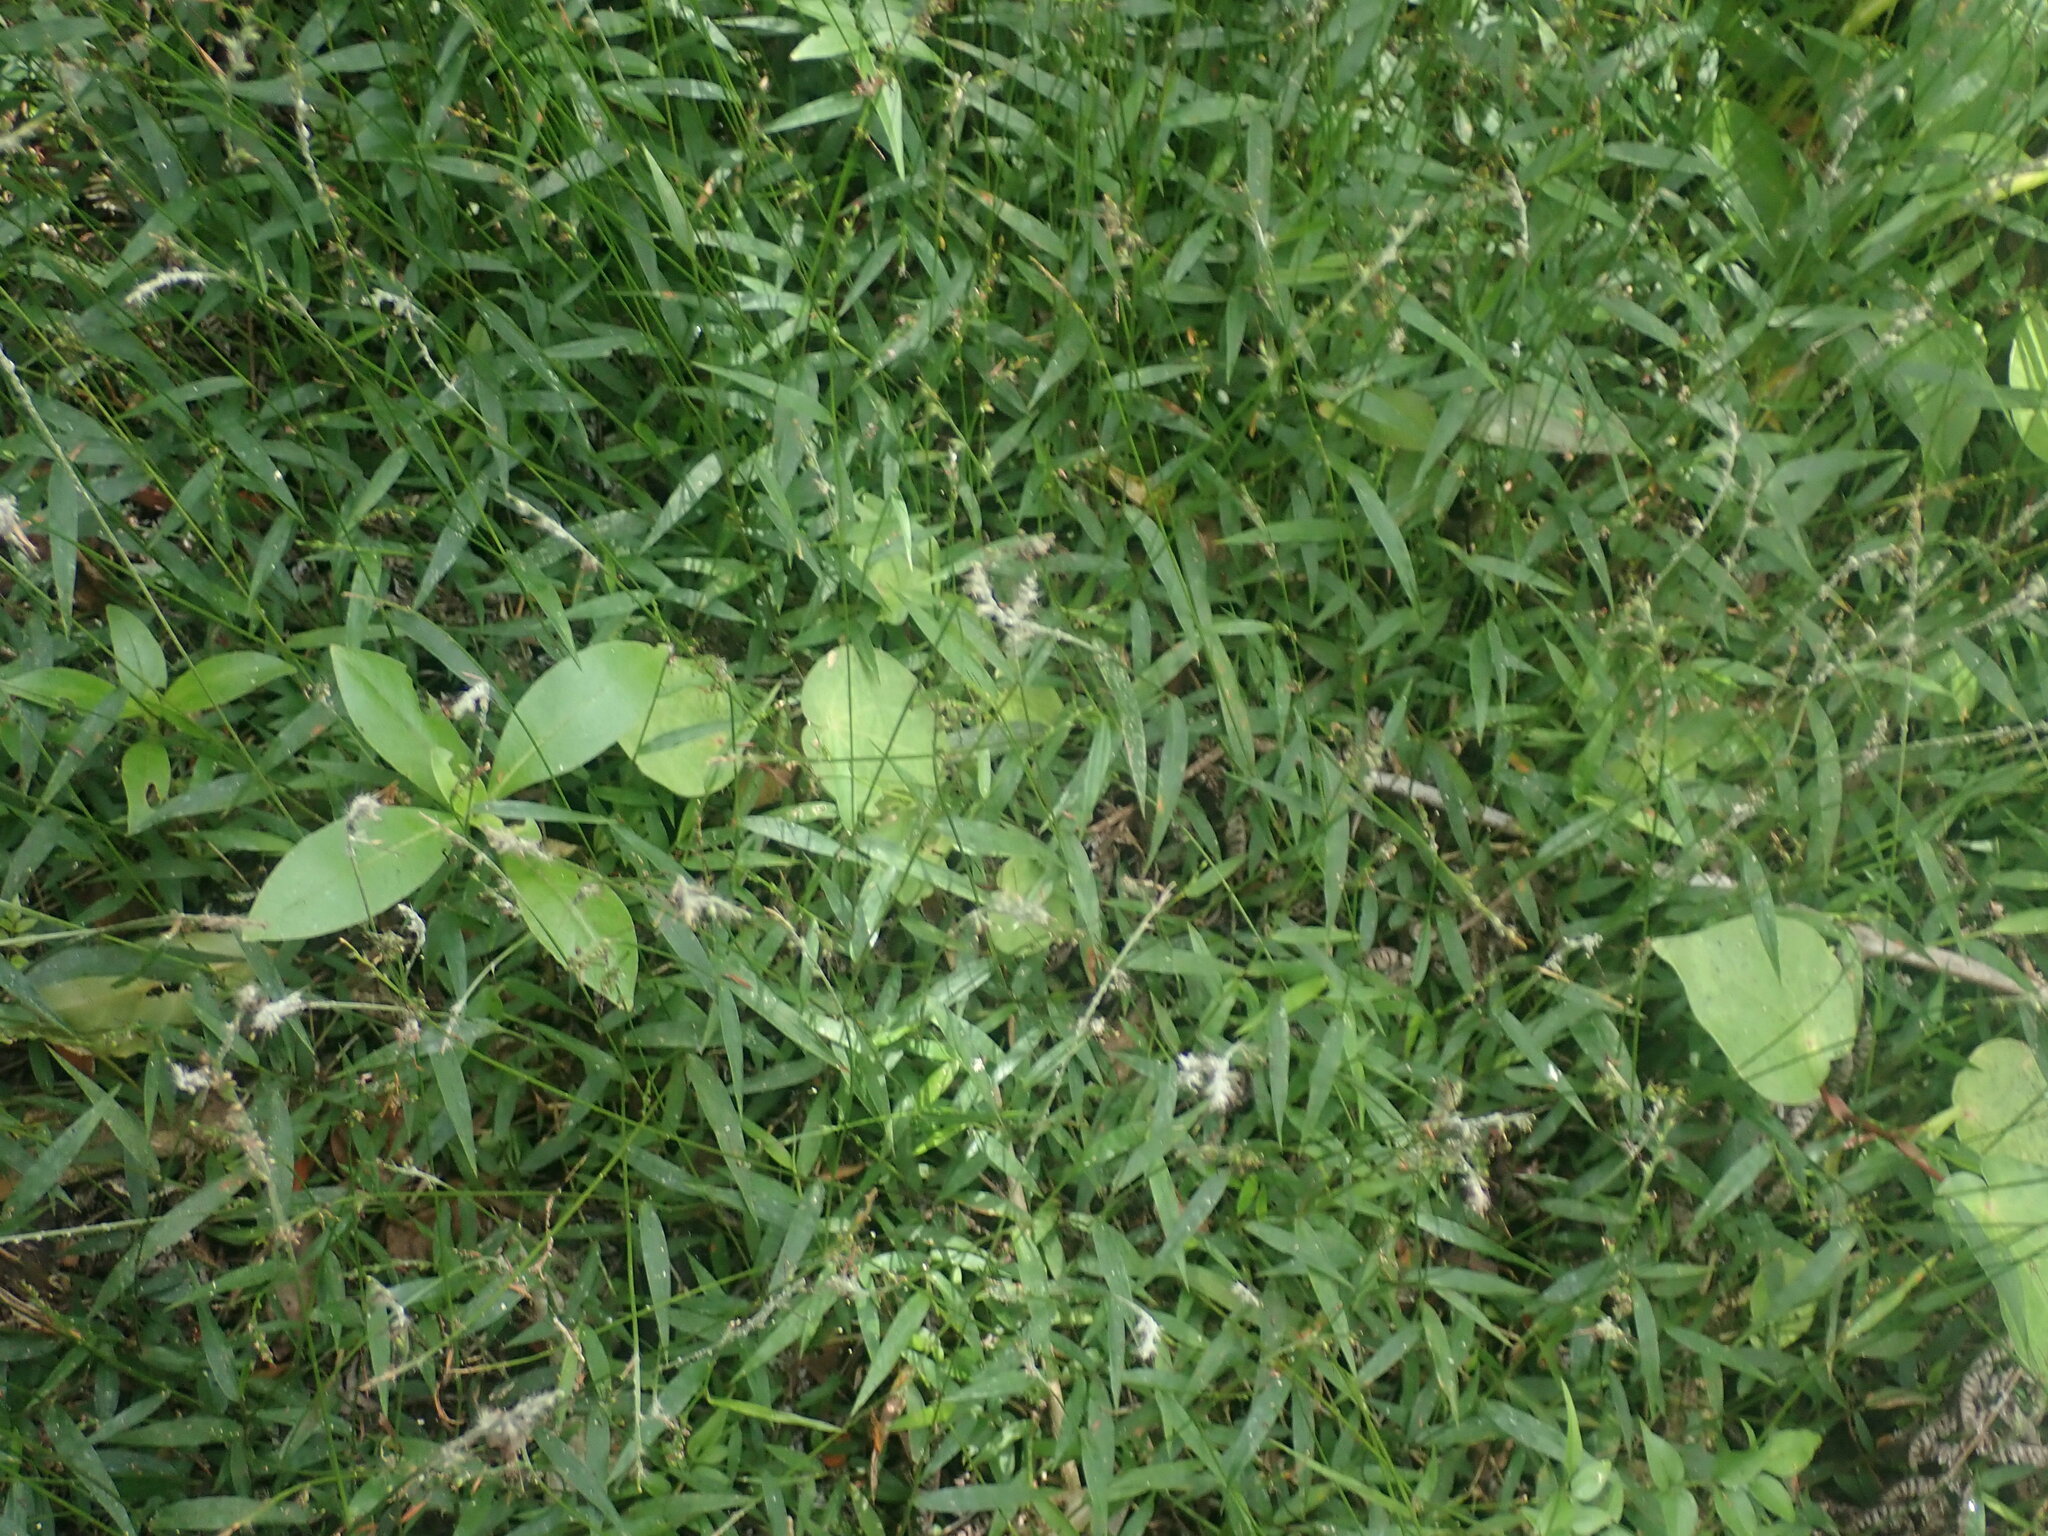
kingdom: Plantae
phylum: Tracheophyta
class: Liliopsida
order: Poales
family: Poaceae
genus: Oplismenus
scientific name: Oplismenus hirtellus
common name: Basketgrass
